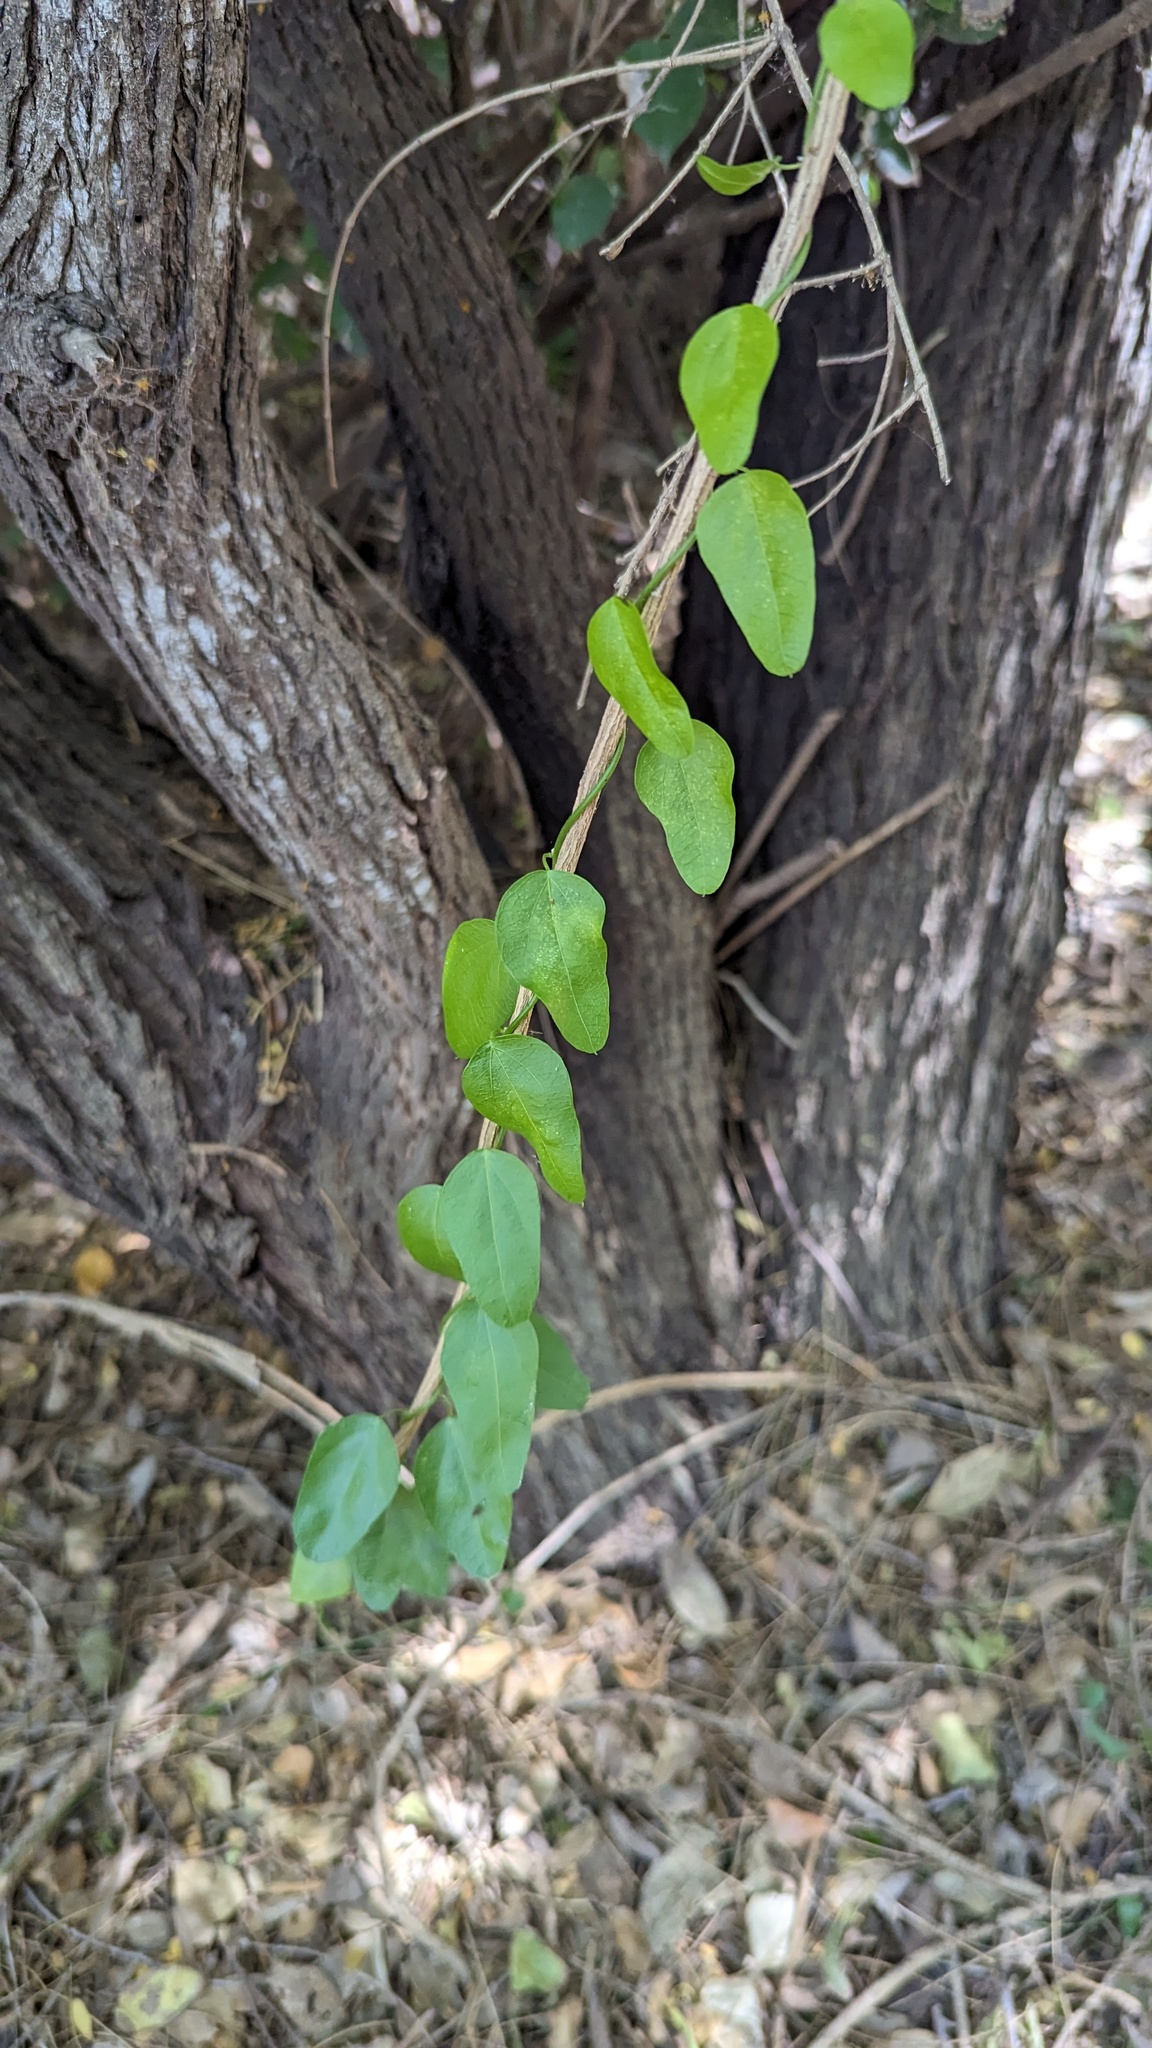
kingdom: Plantae
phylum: Tracheophyta
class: Magnoliopsida
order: Ranunculales
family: Menispermaceae
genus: Cocculus
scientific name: Cocculus diversifolius
